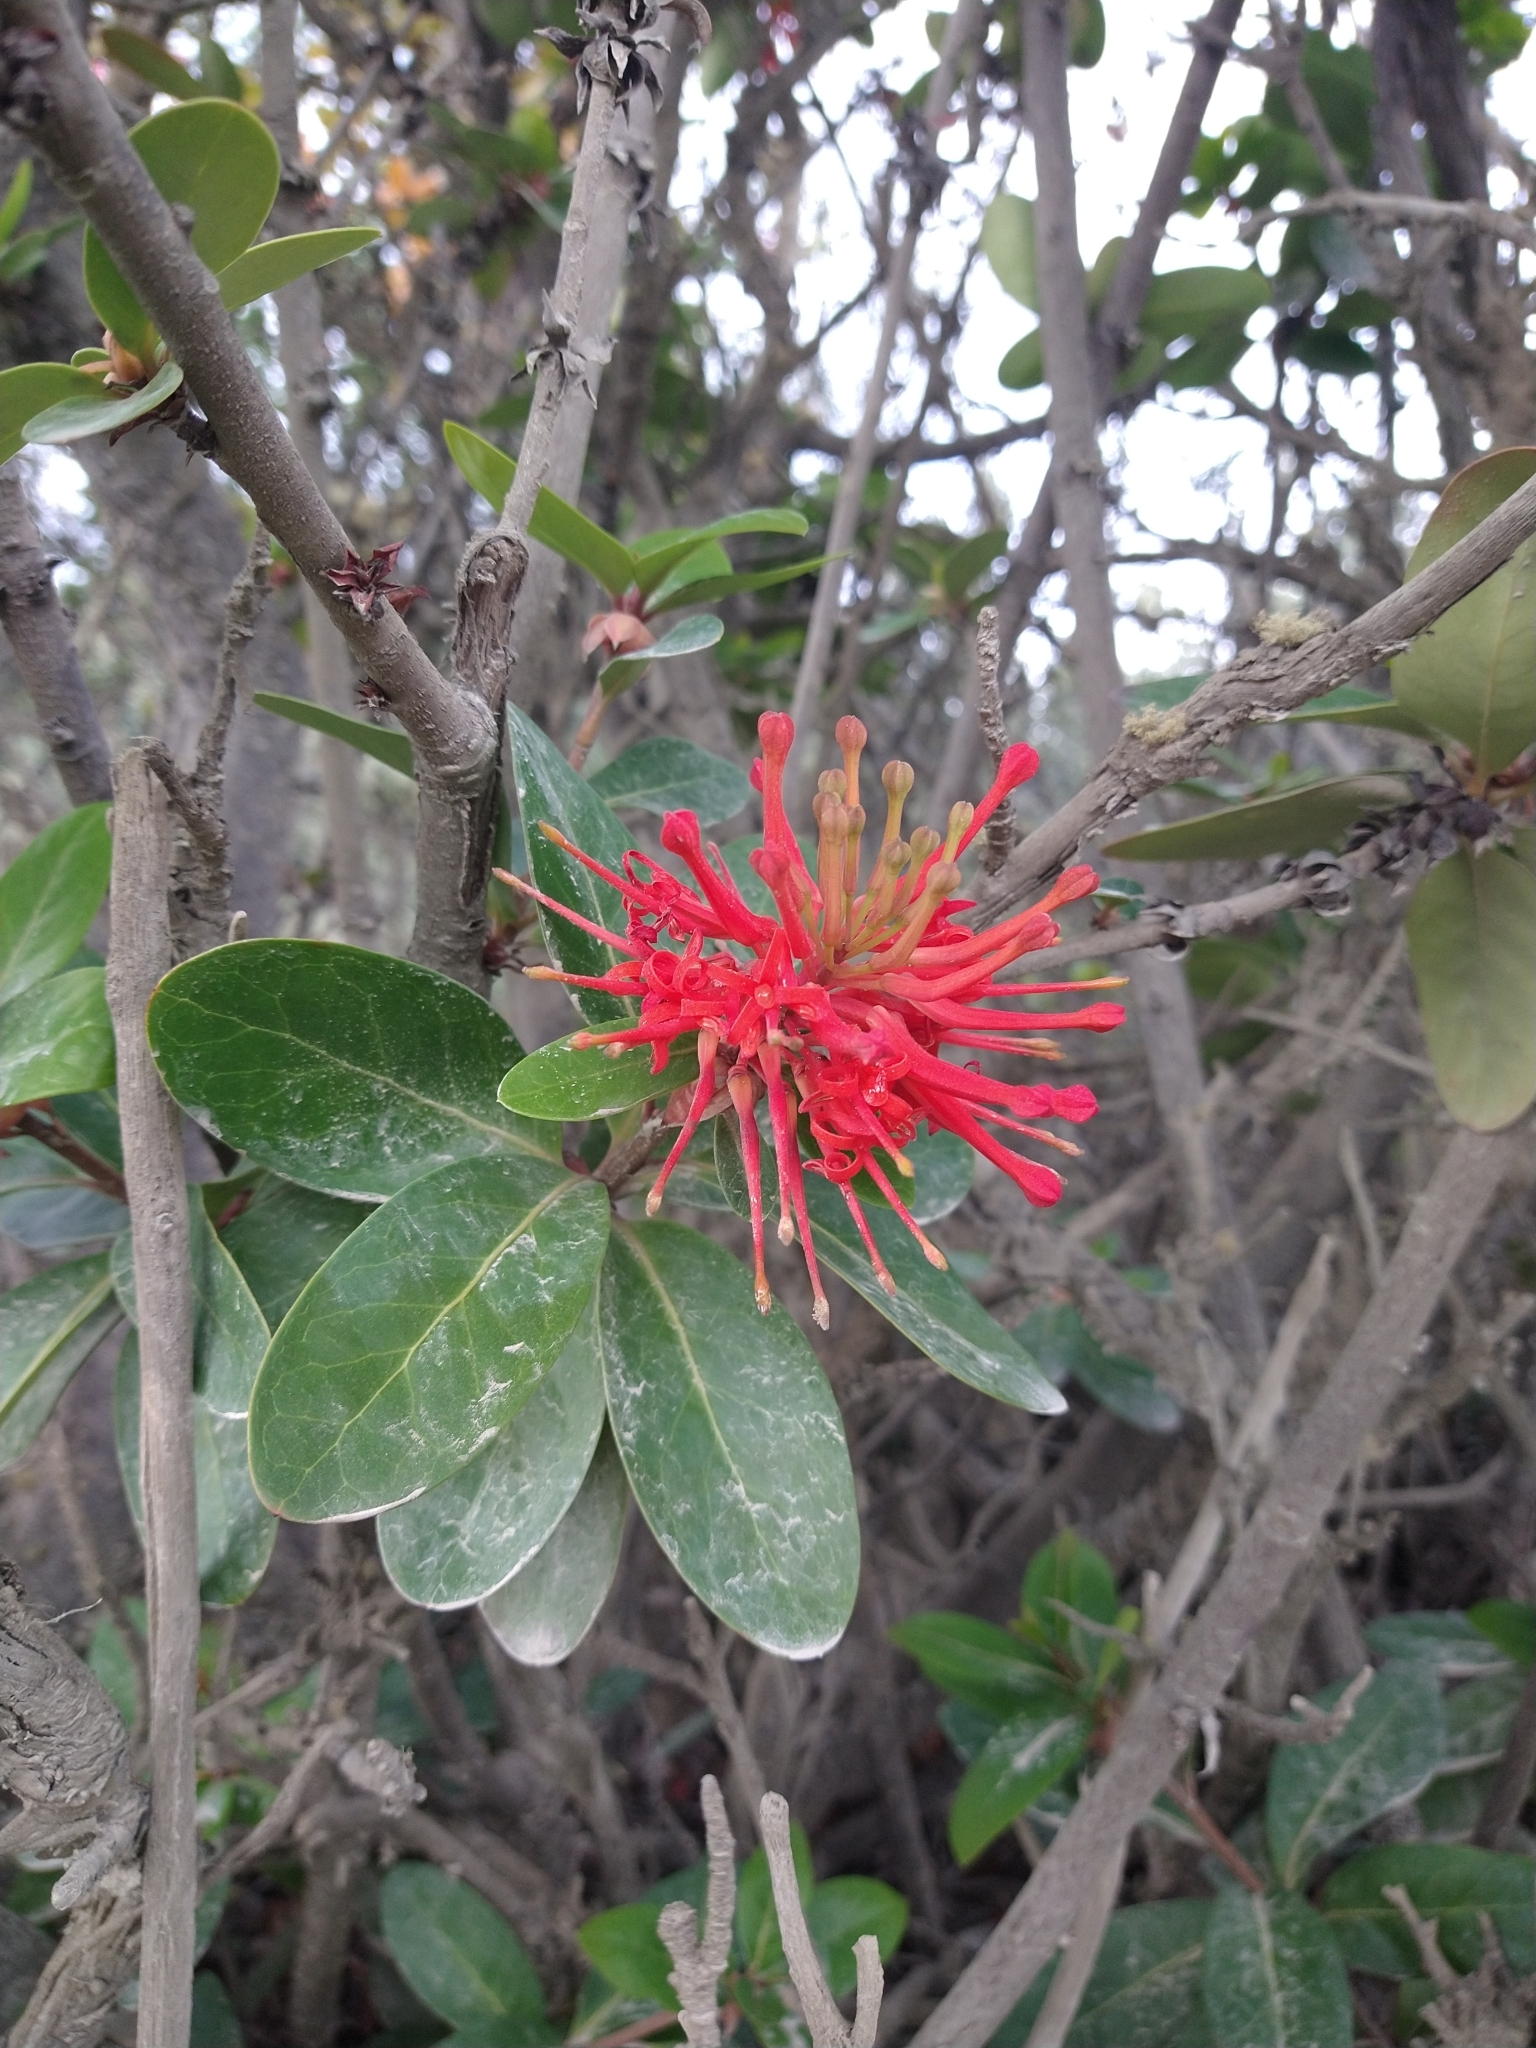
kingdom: Plantae
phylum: Tracheophyta
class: Magnoliopsida
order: Proteales
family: Proteaceae
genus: Embothrium
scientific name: Embothrium coccineum
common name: Chilean firebush
